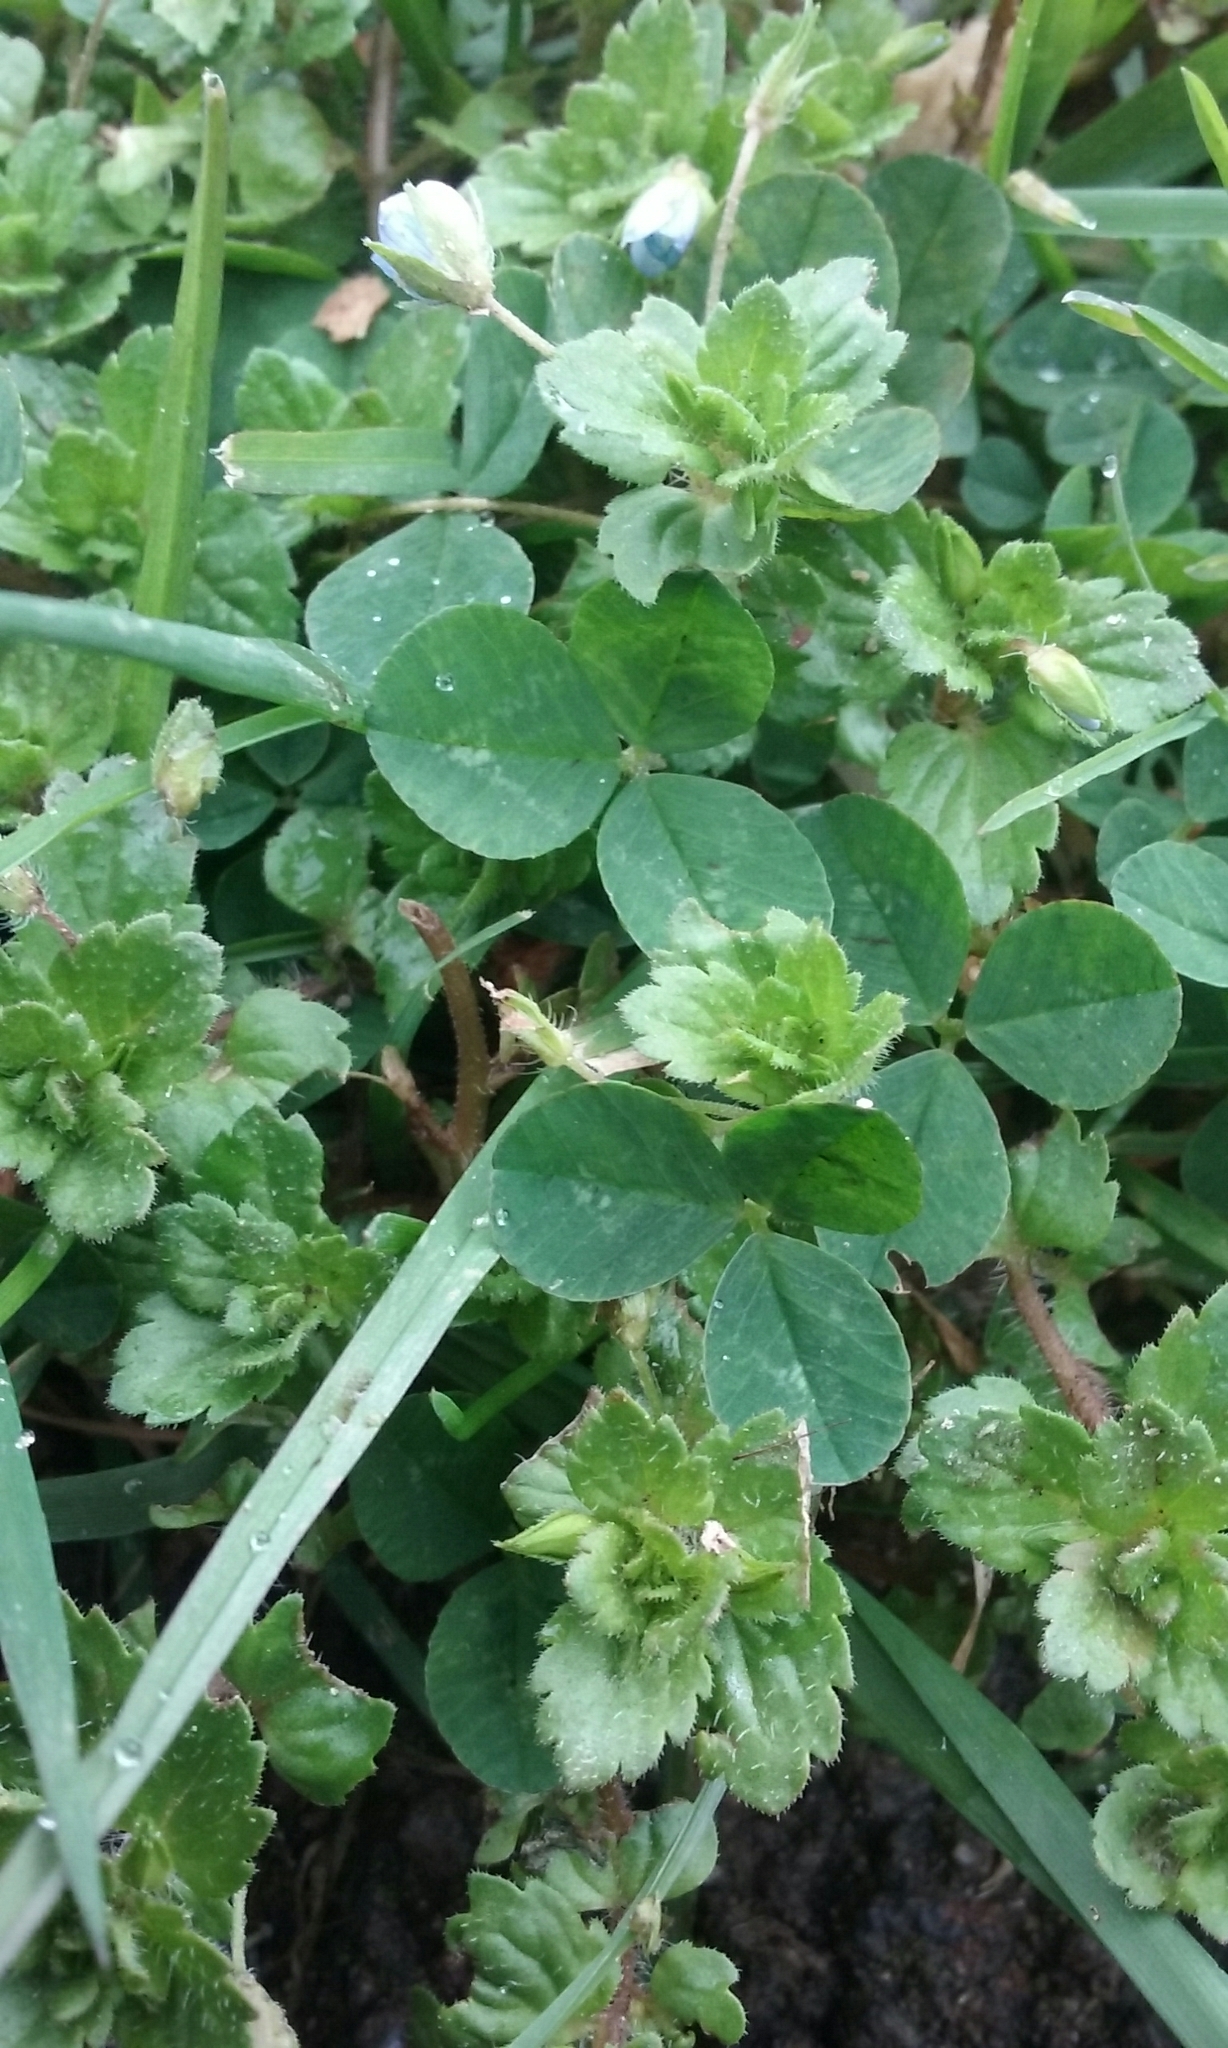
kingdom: Plantae
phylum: Tracheophyta
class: Magnoliopsida
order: Lamiales
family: Plantaginaceae
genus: Veronica
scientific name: Veronica persica
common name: Common field-speedwell
